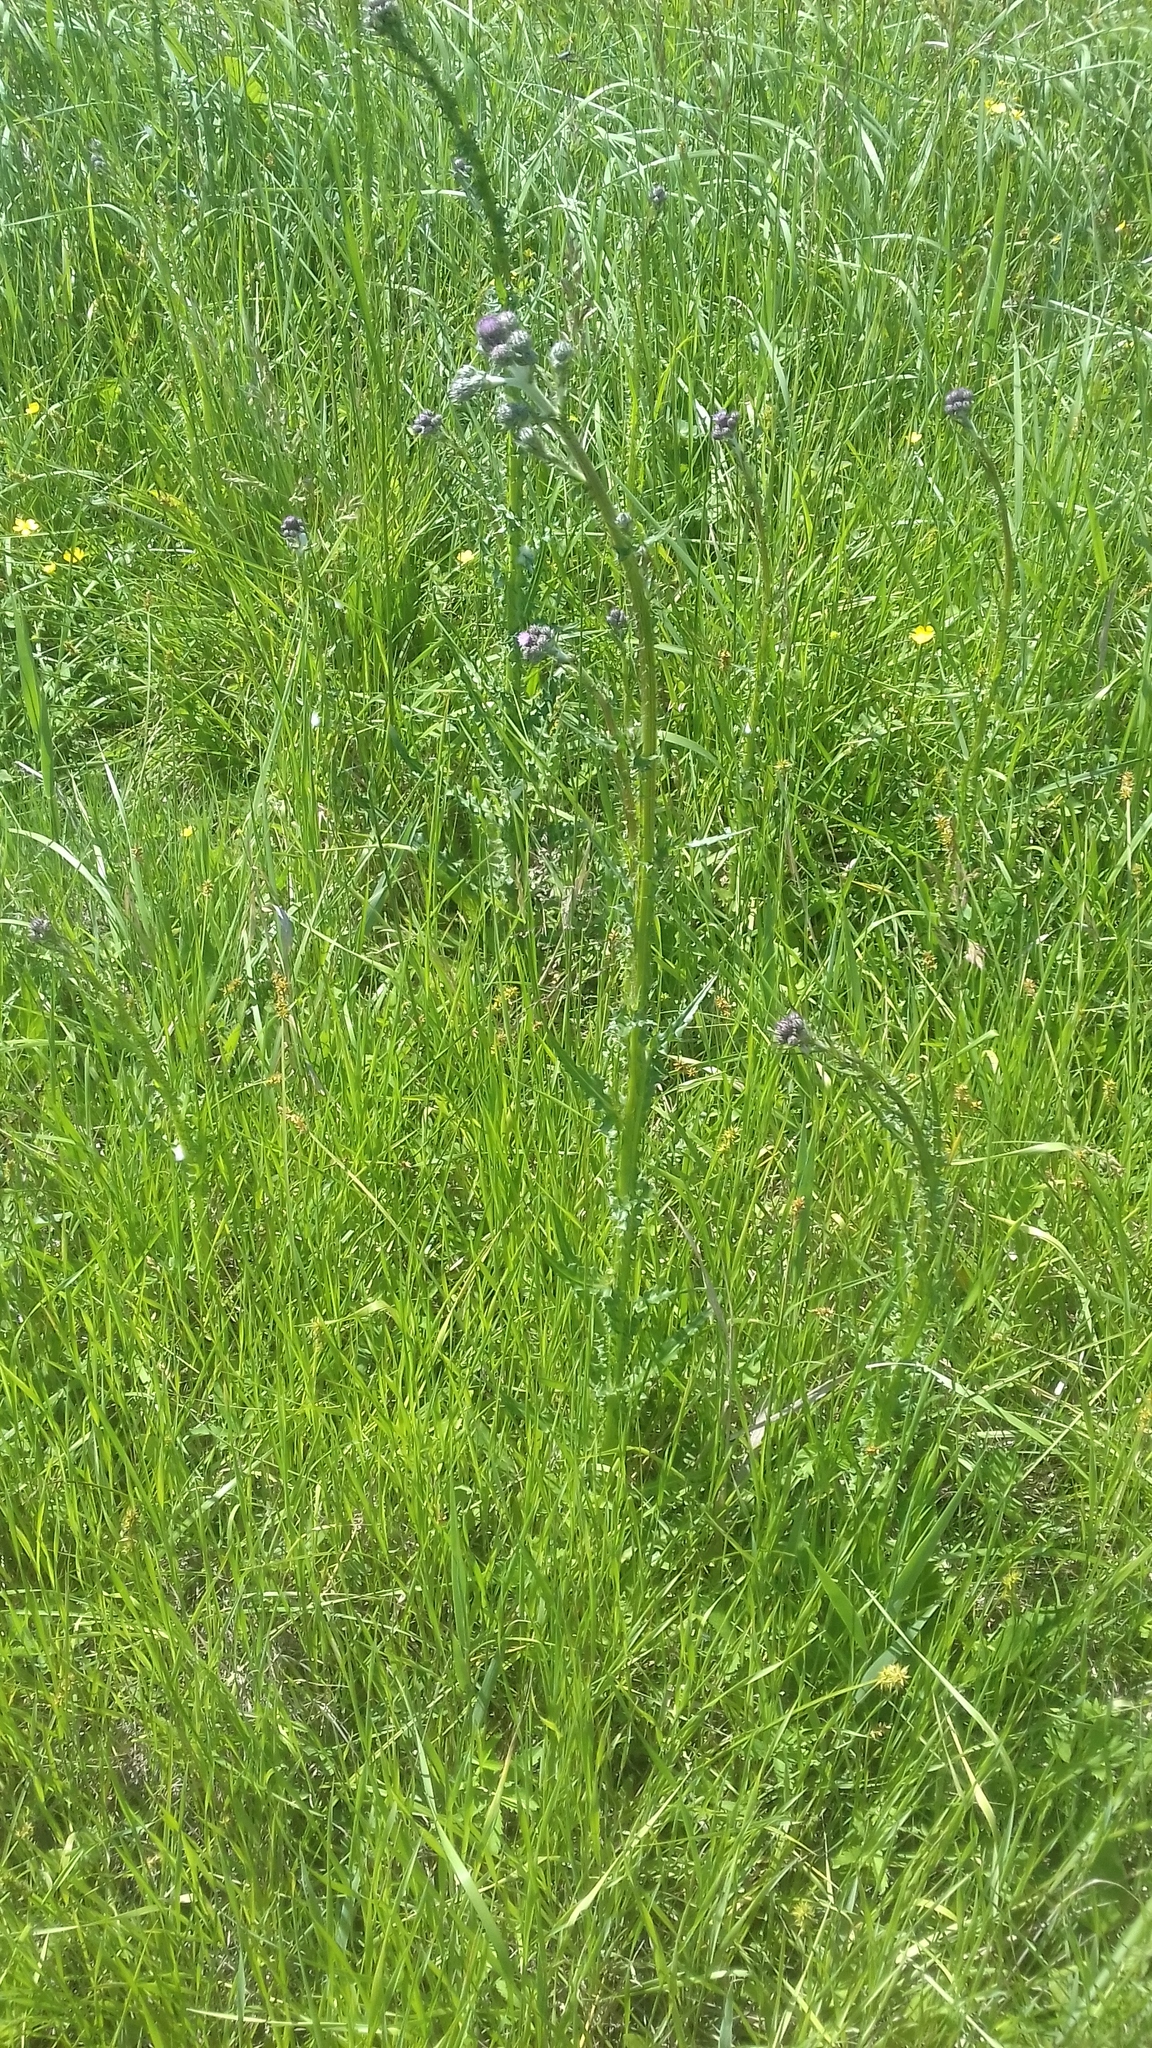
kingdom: Plantae
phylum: Tracheophyta
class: Magnoliopsida
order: Asterales
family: Asteraceae
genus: Cirsium
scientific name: Cirsium brachycephalum
